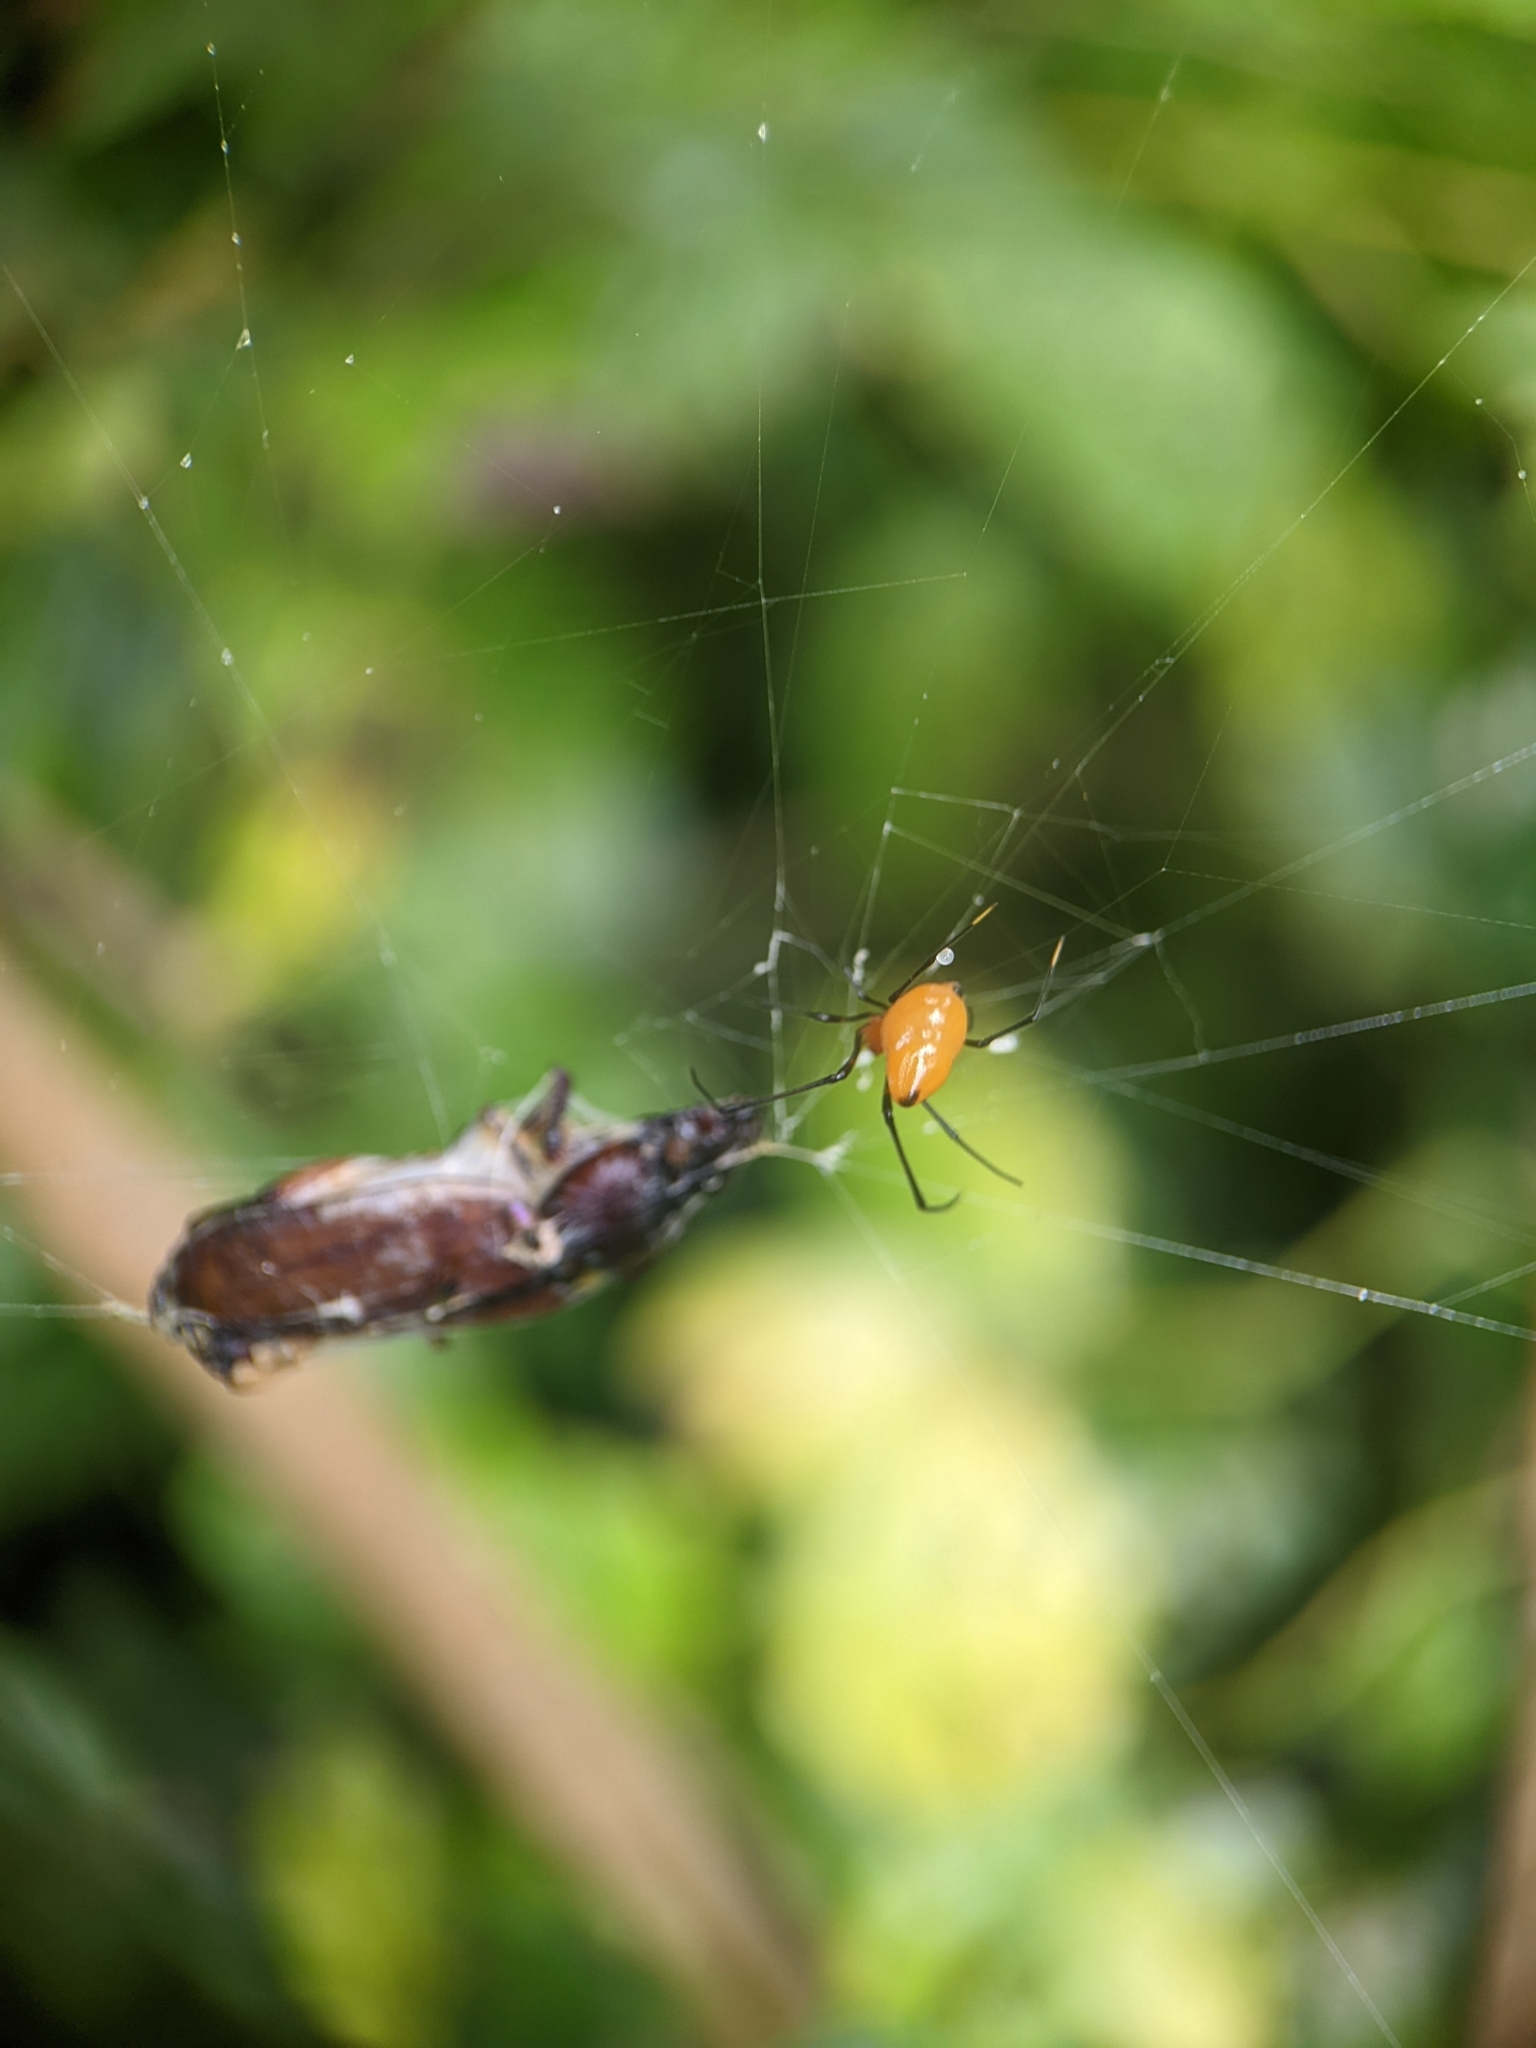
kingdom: Animalia
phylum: Arthropoda
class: Arachnida
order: Araneae
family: Theridiidae
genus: Argyrodes
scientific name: Argyrodes flavescens
